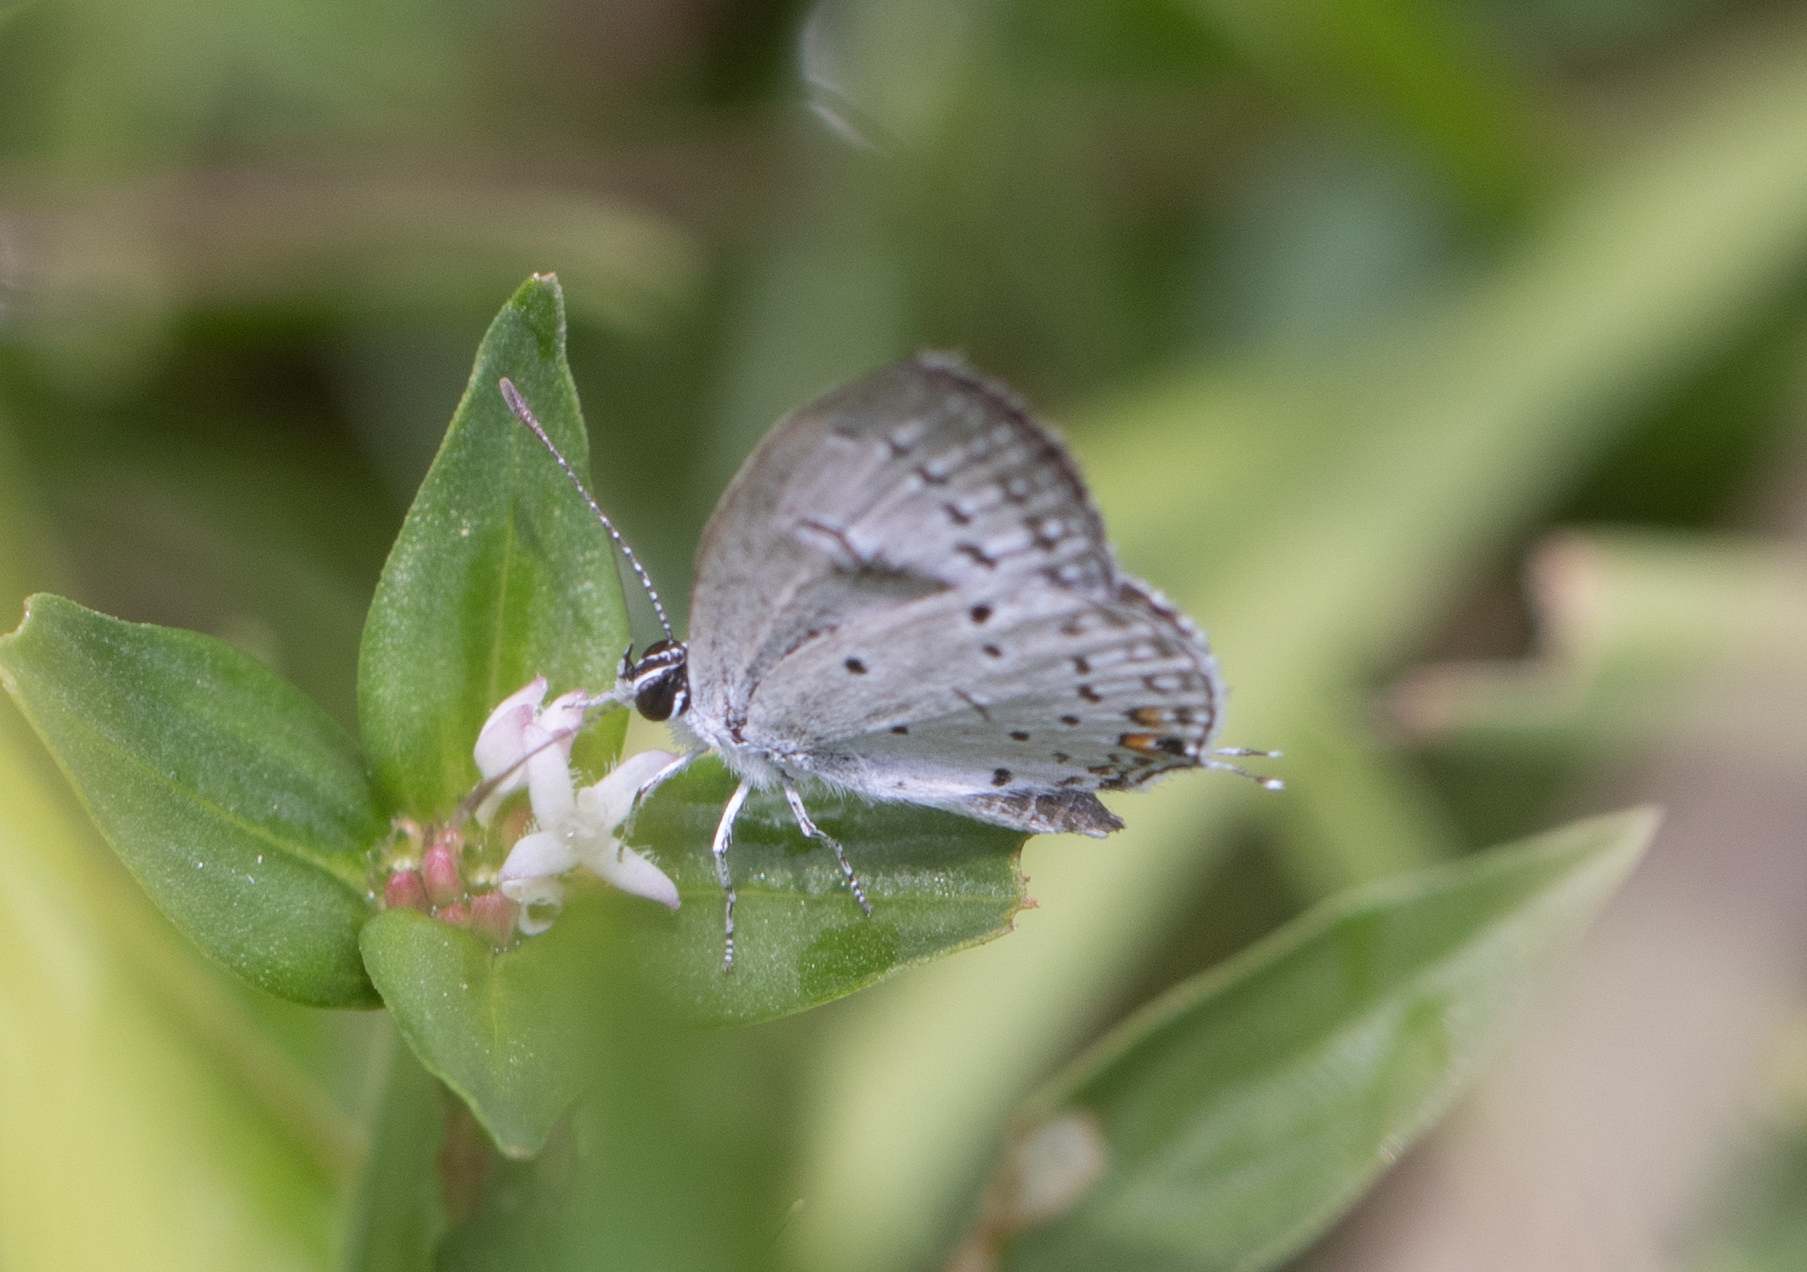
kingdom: Animalia
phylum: Arthropoda
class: Insecta
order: Lepidoptera
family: Lycaenidae
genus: Elkalyce
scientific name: Elkalyce comyntas
